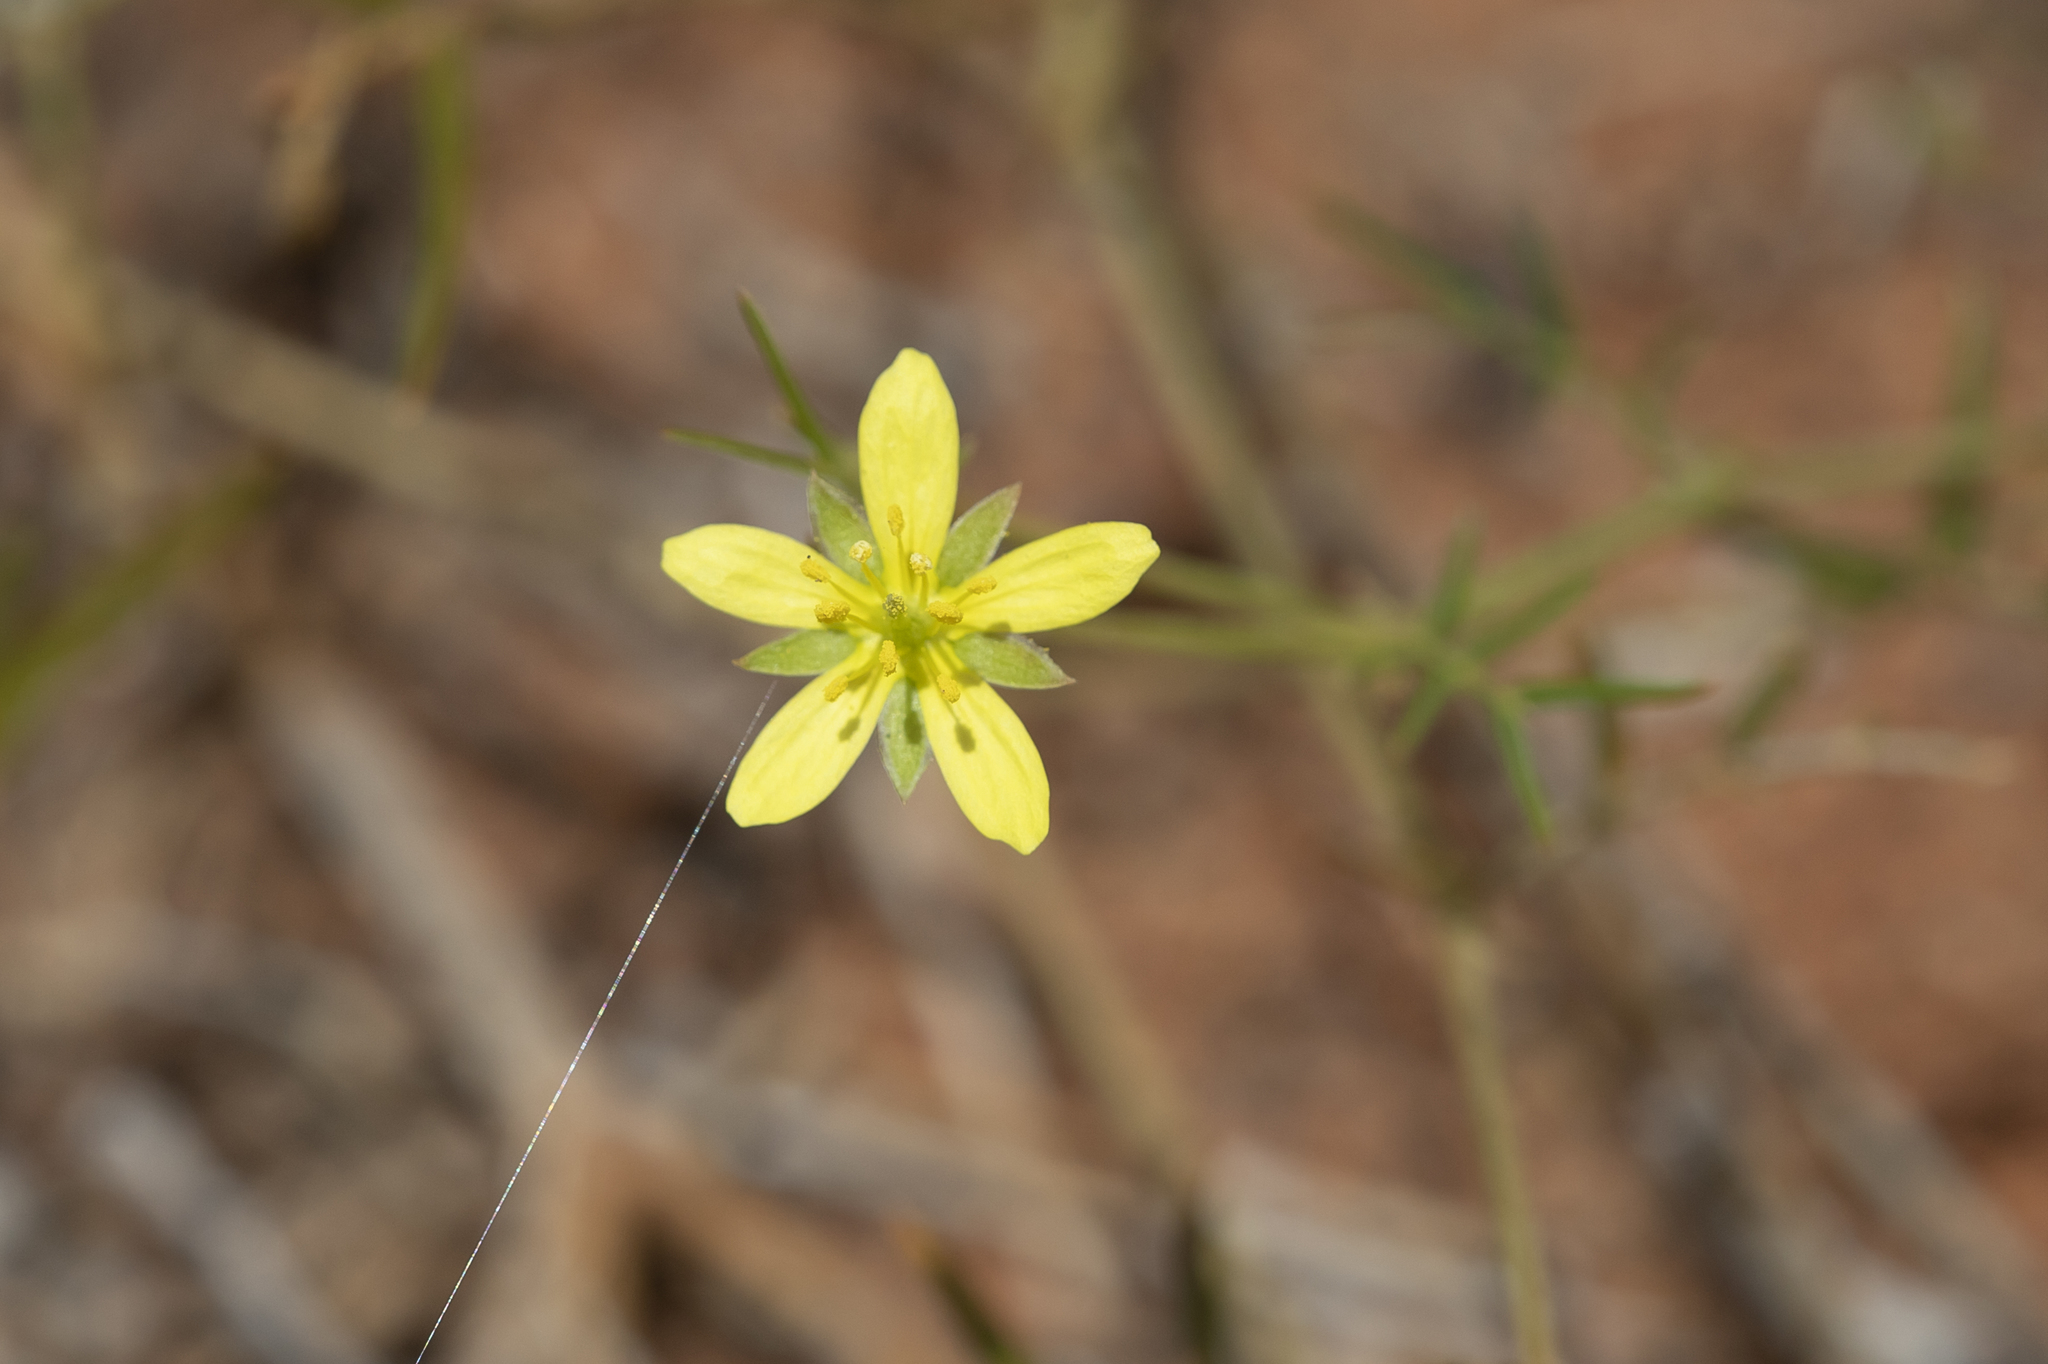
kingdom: Plantae
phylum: Tracheophyta
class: Magnoliopsida
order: Zygophyllales
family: Zygophyllaceae
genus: Tribulopis
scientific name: Tribulopis angustifolia
